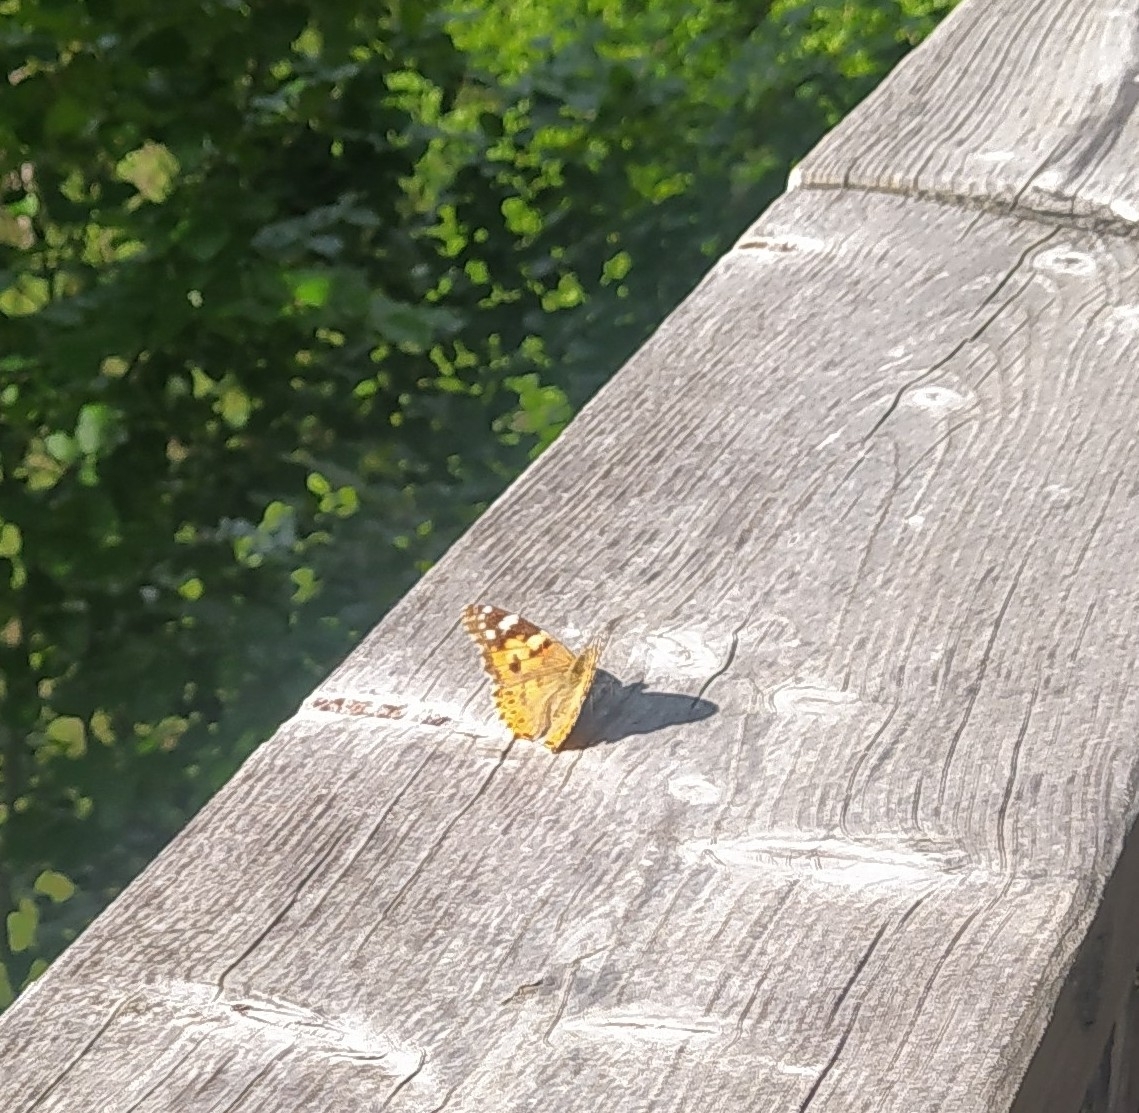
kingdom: Animalia
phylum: Arthropoda
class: Insecta
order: Lepidoptera
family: Nymphalidae
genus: Vanessa
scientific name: Vanessa cardui
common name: Painted lady
